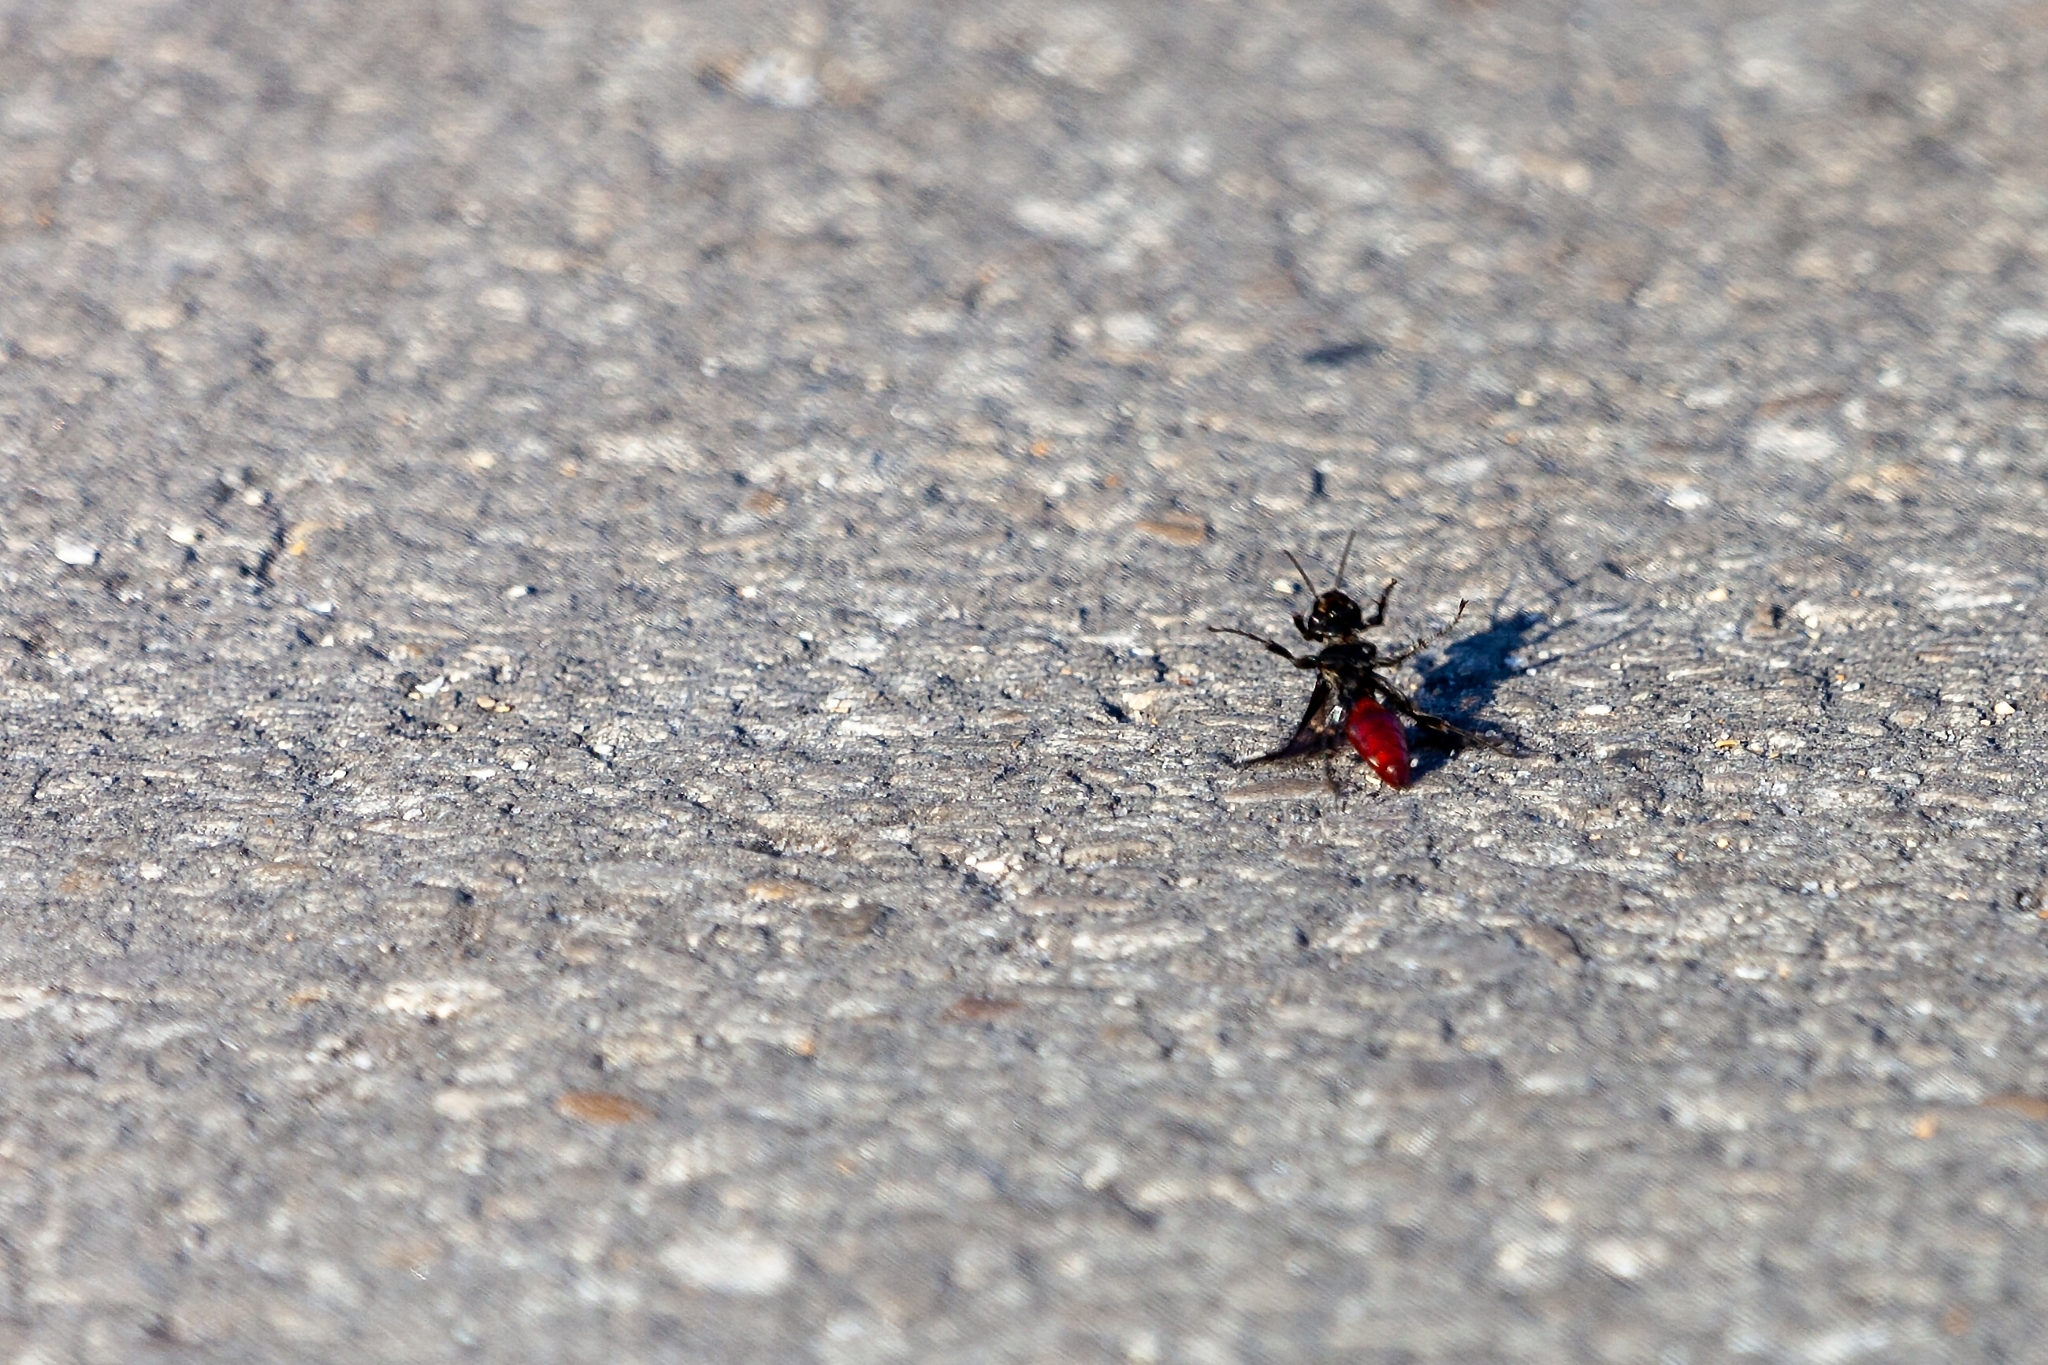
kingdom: Animalia
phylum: Arthropoda
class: Insecta
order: Hymenoptera
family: Crabronidae
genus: Larra
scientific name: Larra bicolor
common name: Wasp
